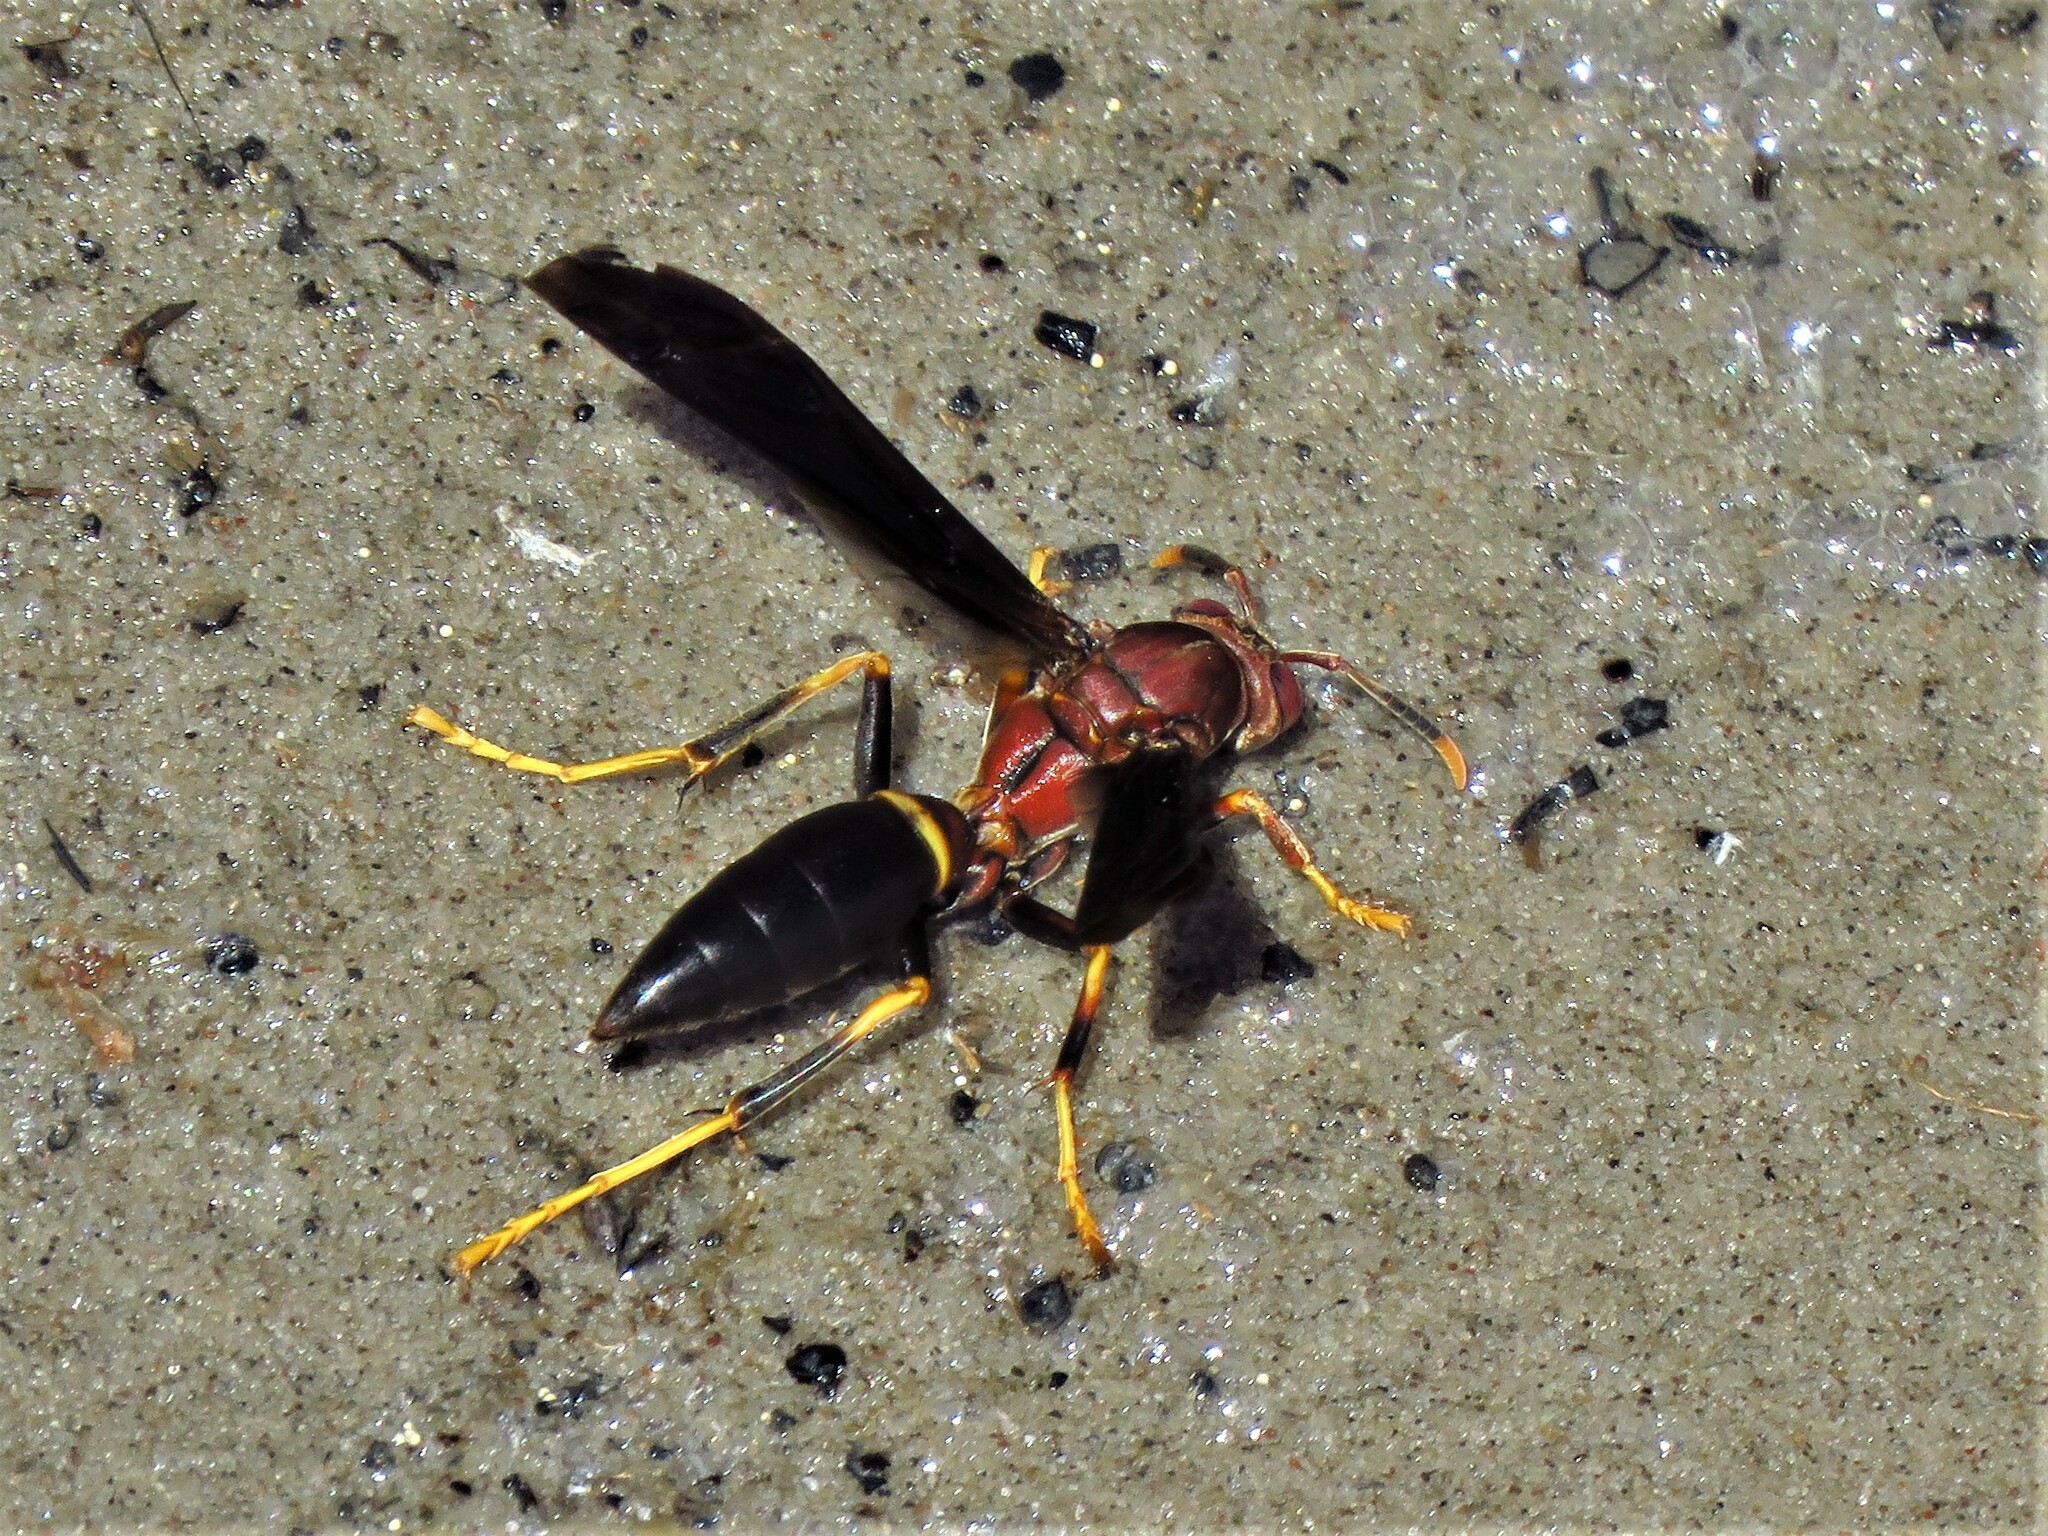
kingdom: Animalia
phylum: Arthropoda
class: Insecta
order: Hymenoptera
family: Eumenidae
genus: Polistes
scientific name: Polistes annularis
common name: Ringed paper wasp
